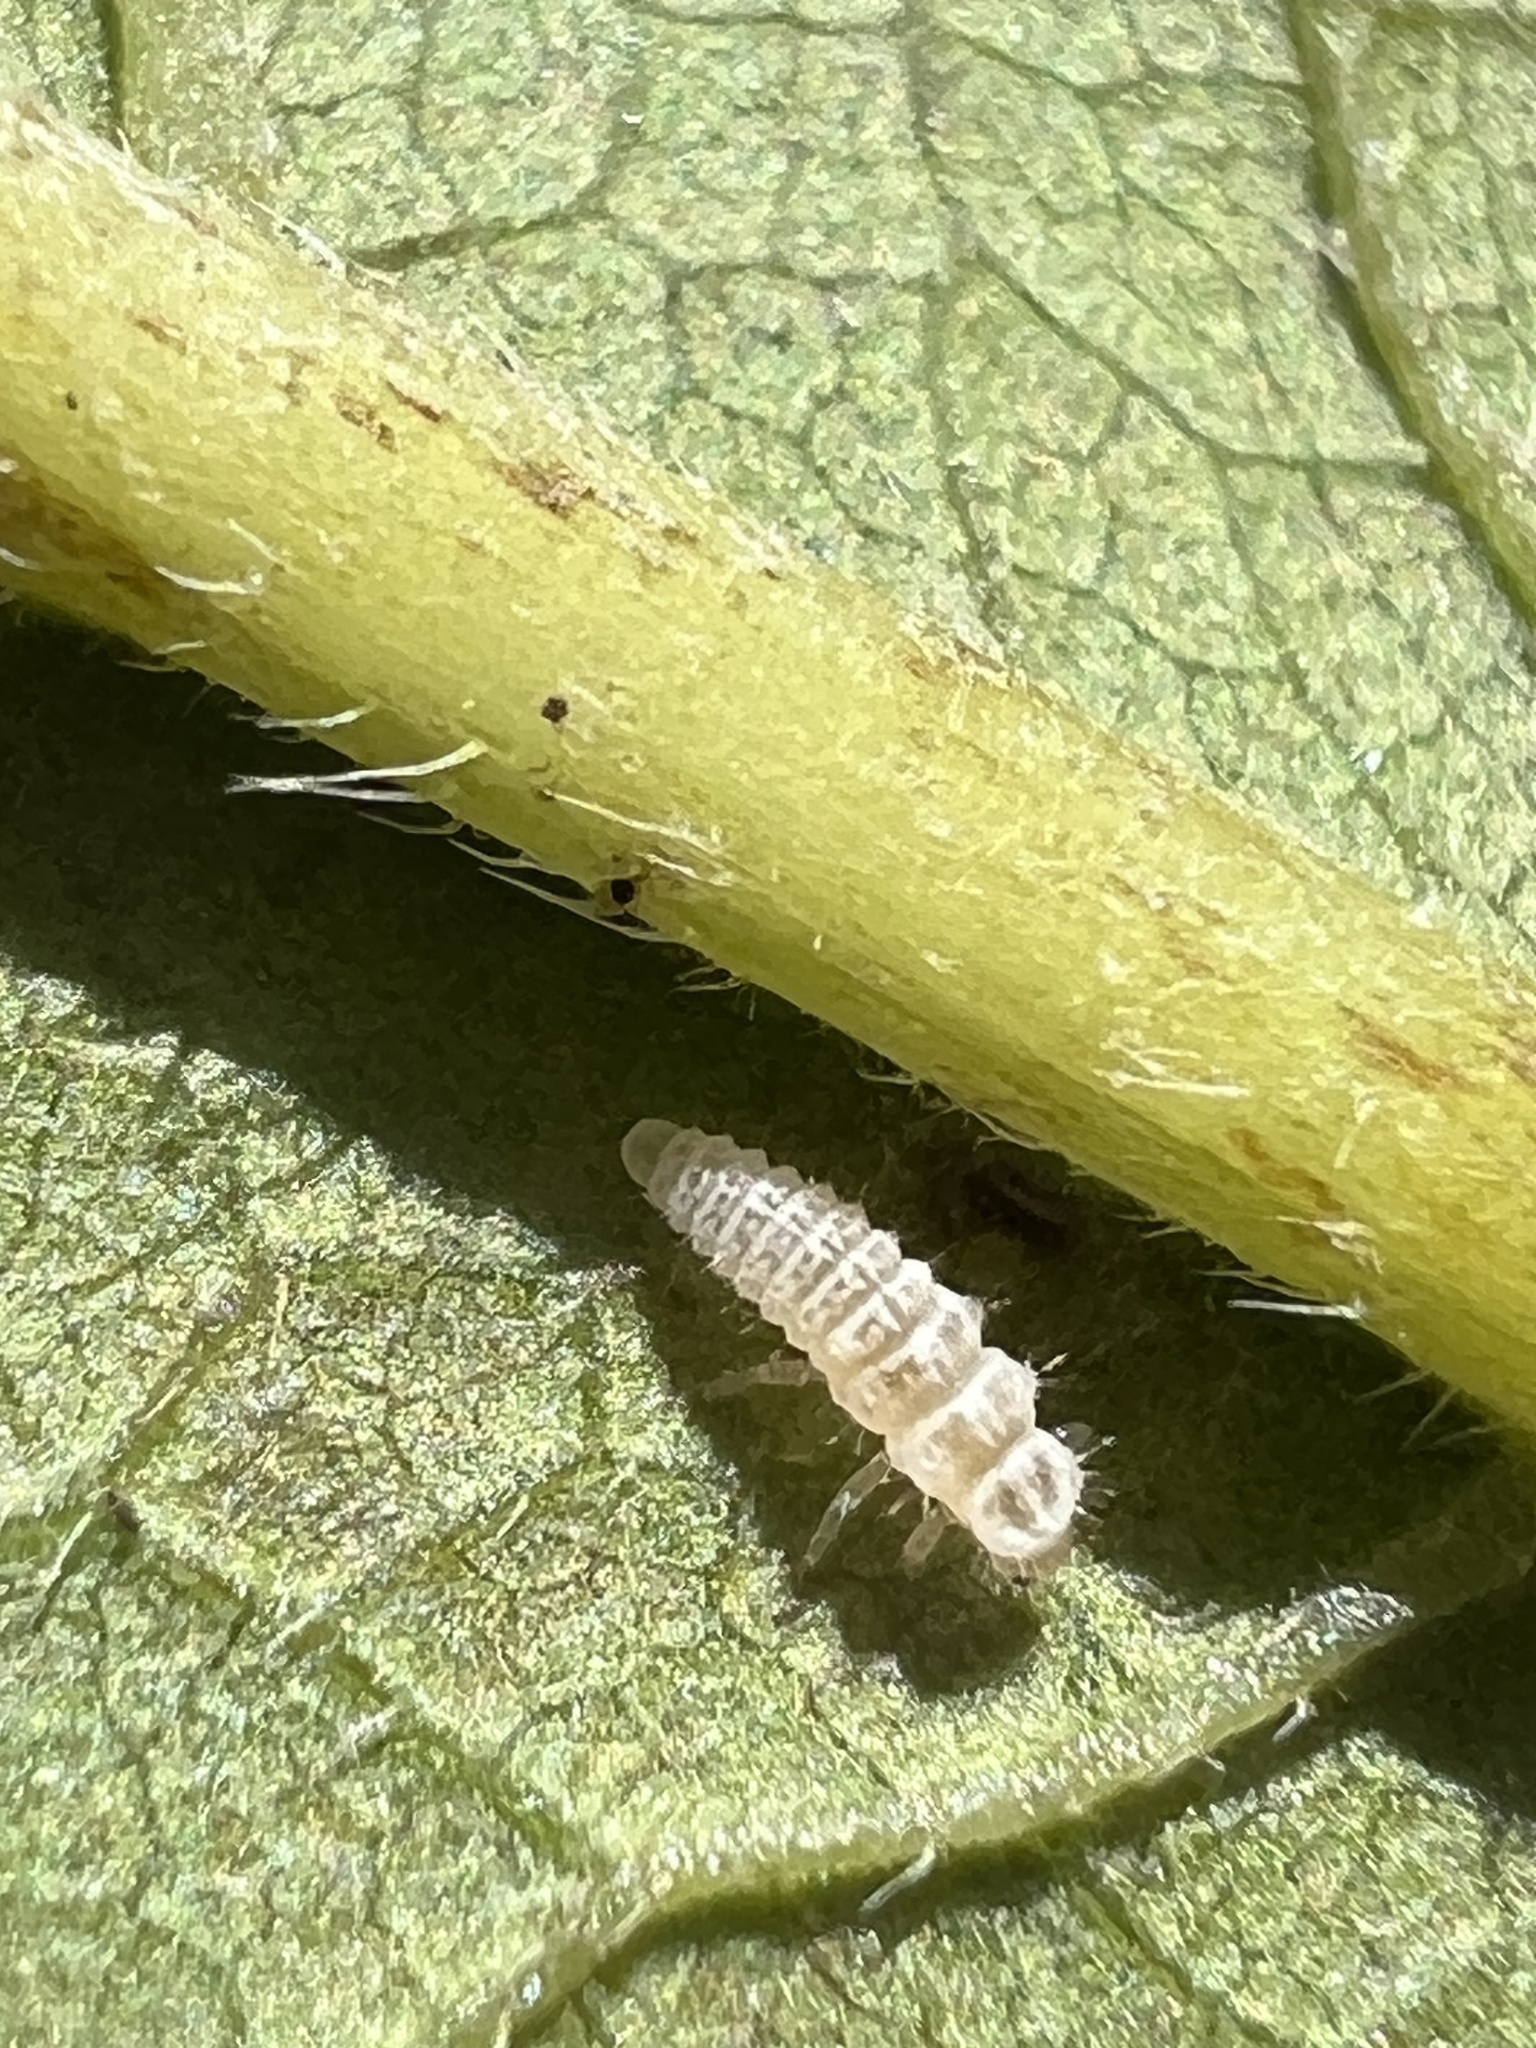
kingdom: Animalia
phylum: Arthropoda
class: Insecta
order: Coleoptera
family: Coccinellidae
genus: Psyllobora
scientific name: Psyllobora vigintimaculata
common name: Ladybird beetle
